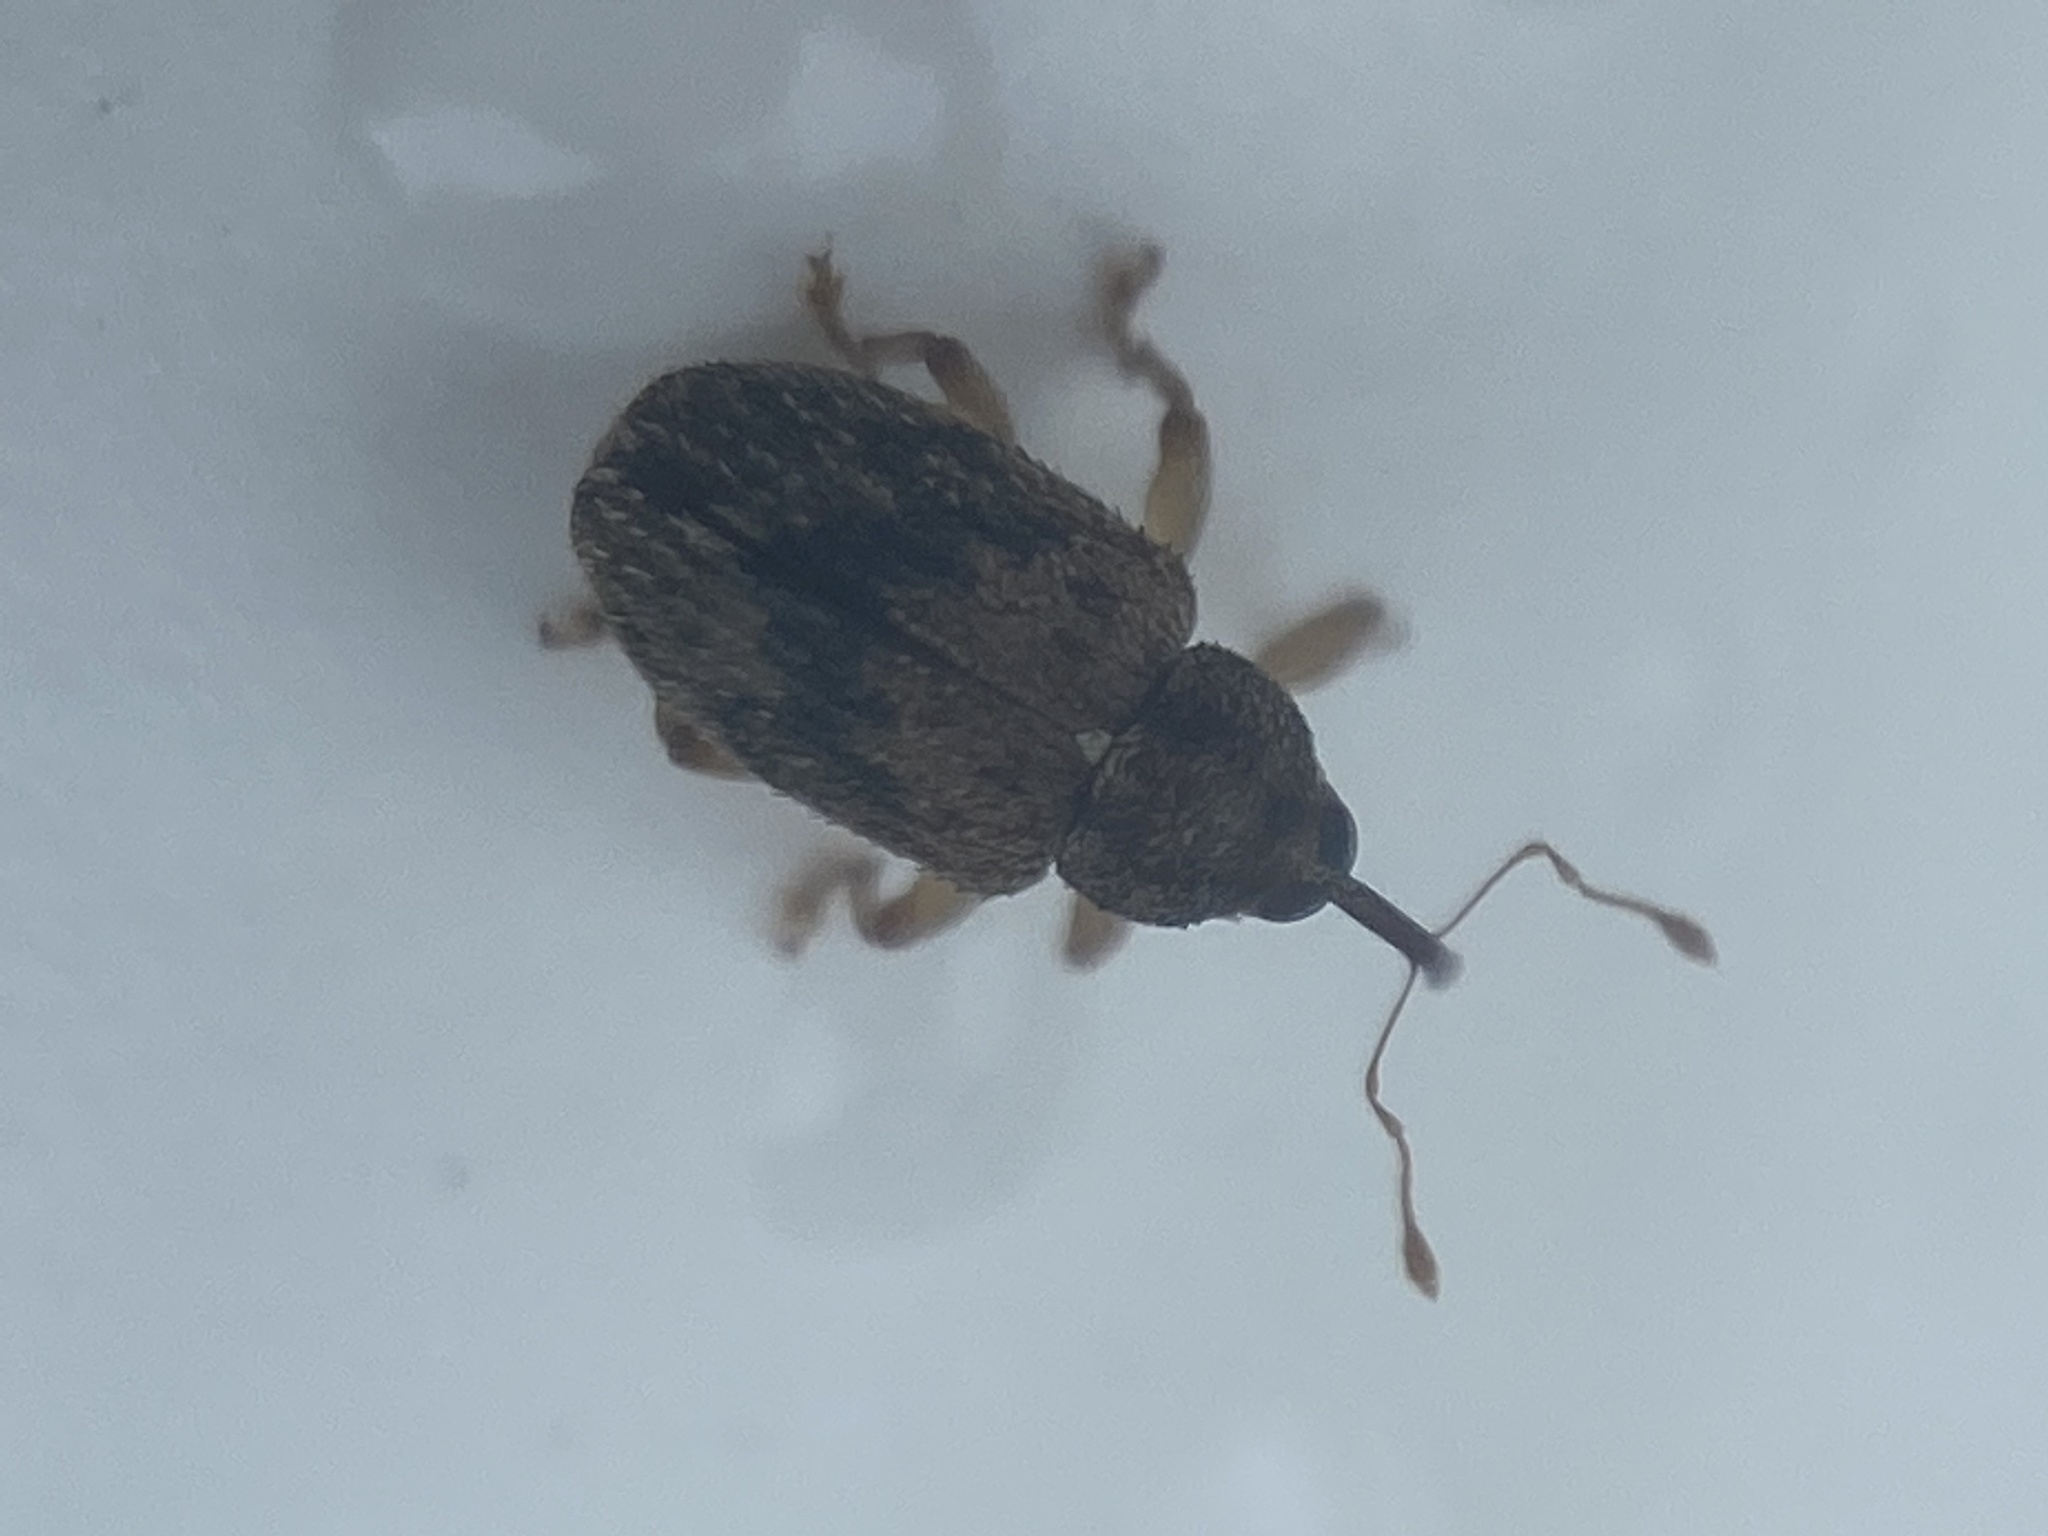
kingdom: Animalia
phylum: Arthropoda
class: Insecta
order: Coleoptera
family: Curculionidae
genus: Thysanocnemis
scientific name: Thysanocnemis bischoffi
